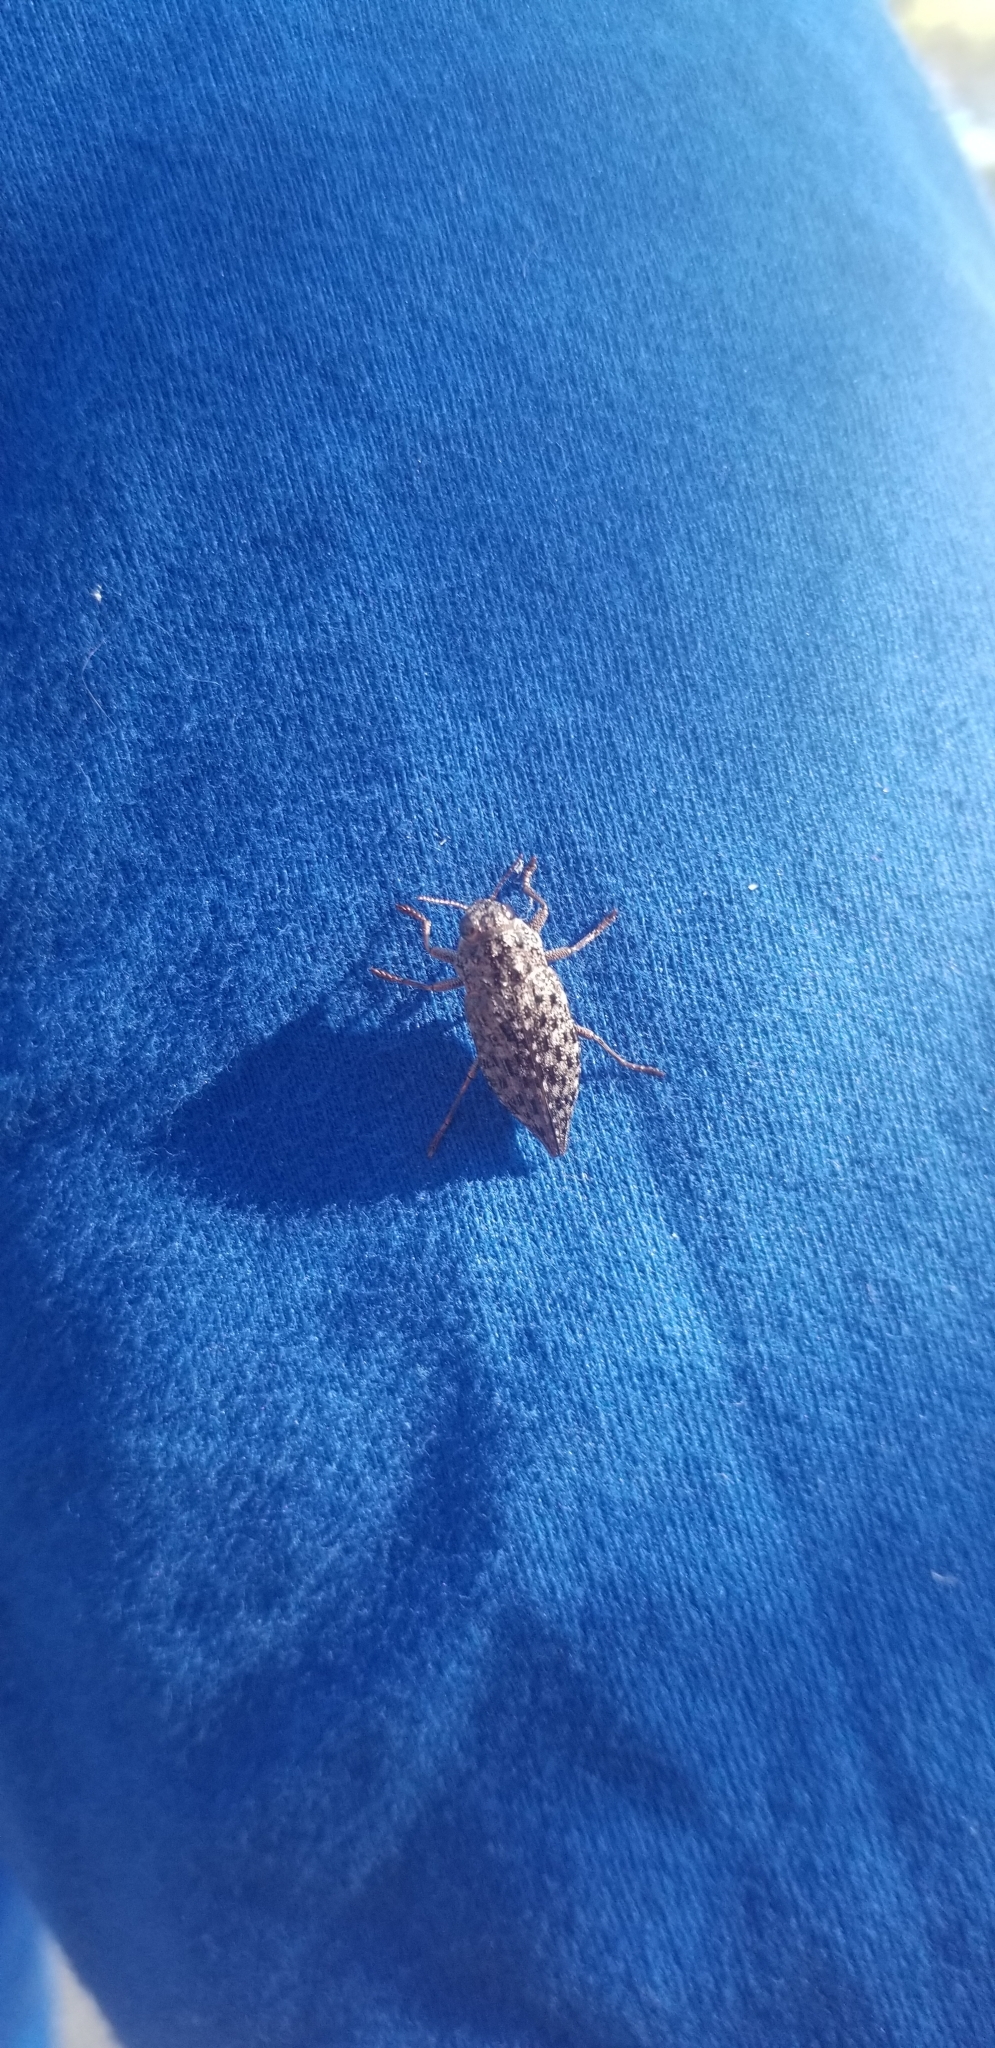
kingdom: Animalia
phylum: Arthropoda
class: Insecta
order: Coleoptera
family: Buprestidae
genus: Dicerca
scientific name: Dicerca tenebrosa
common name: Dark jewel beetle
